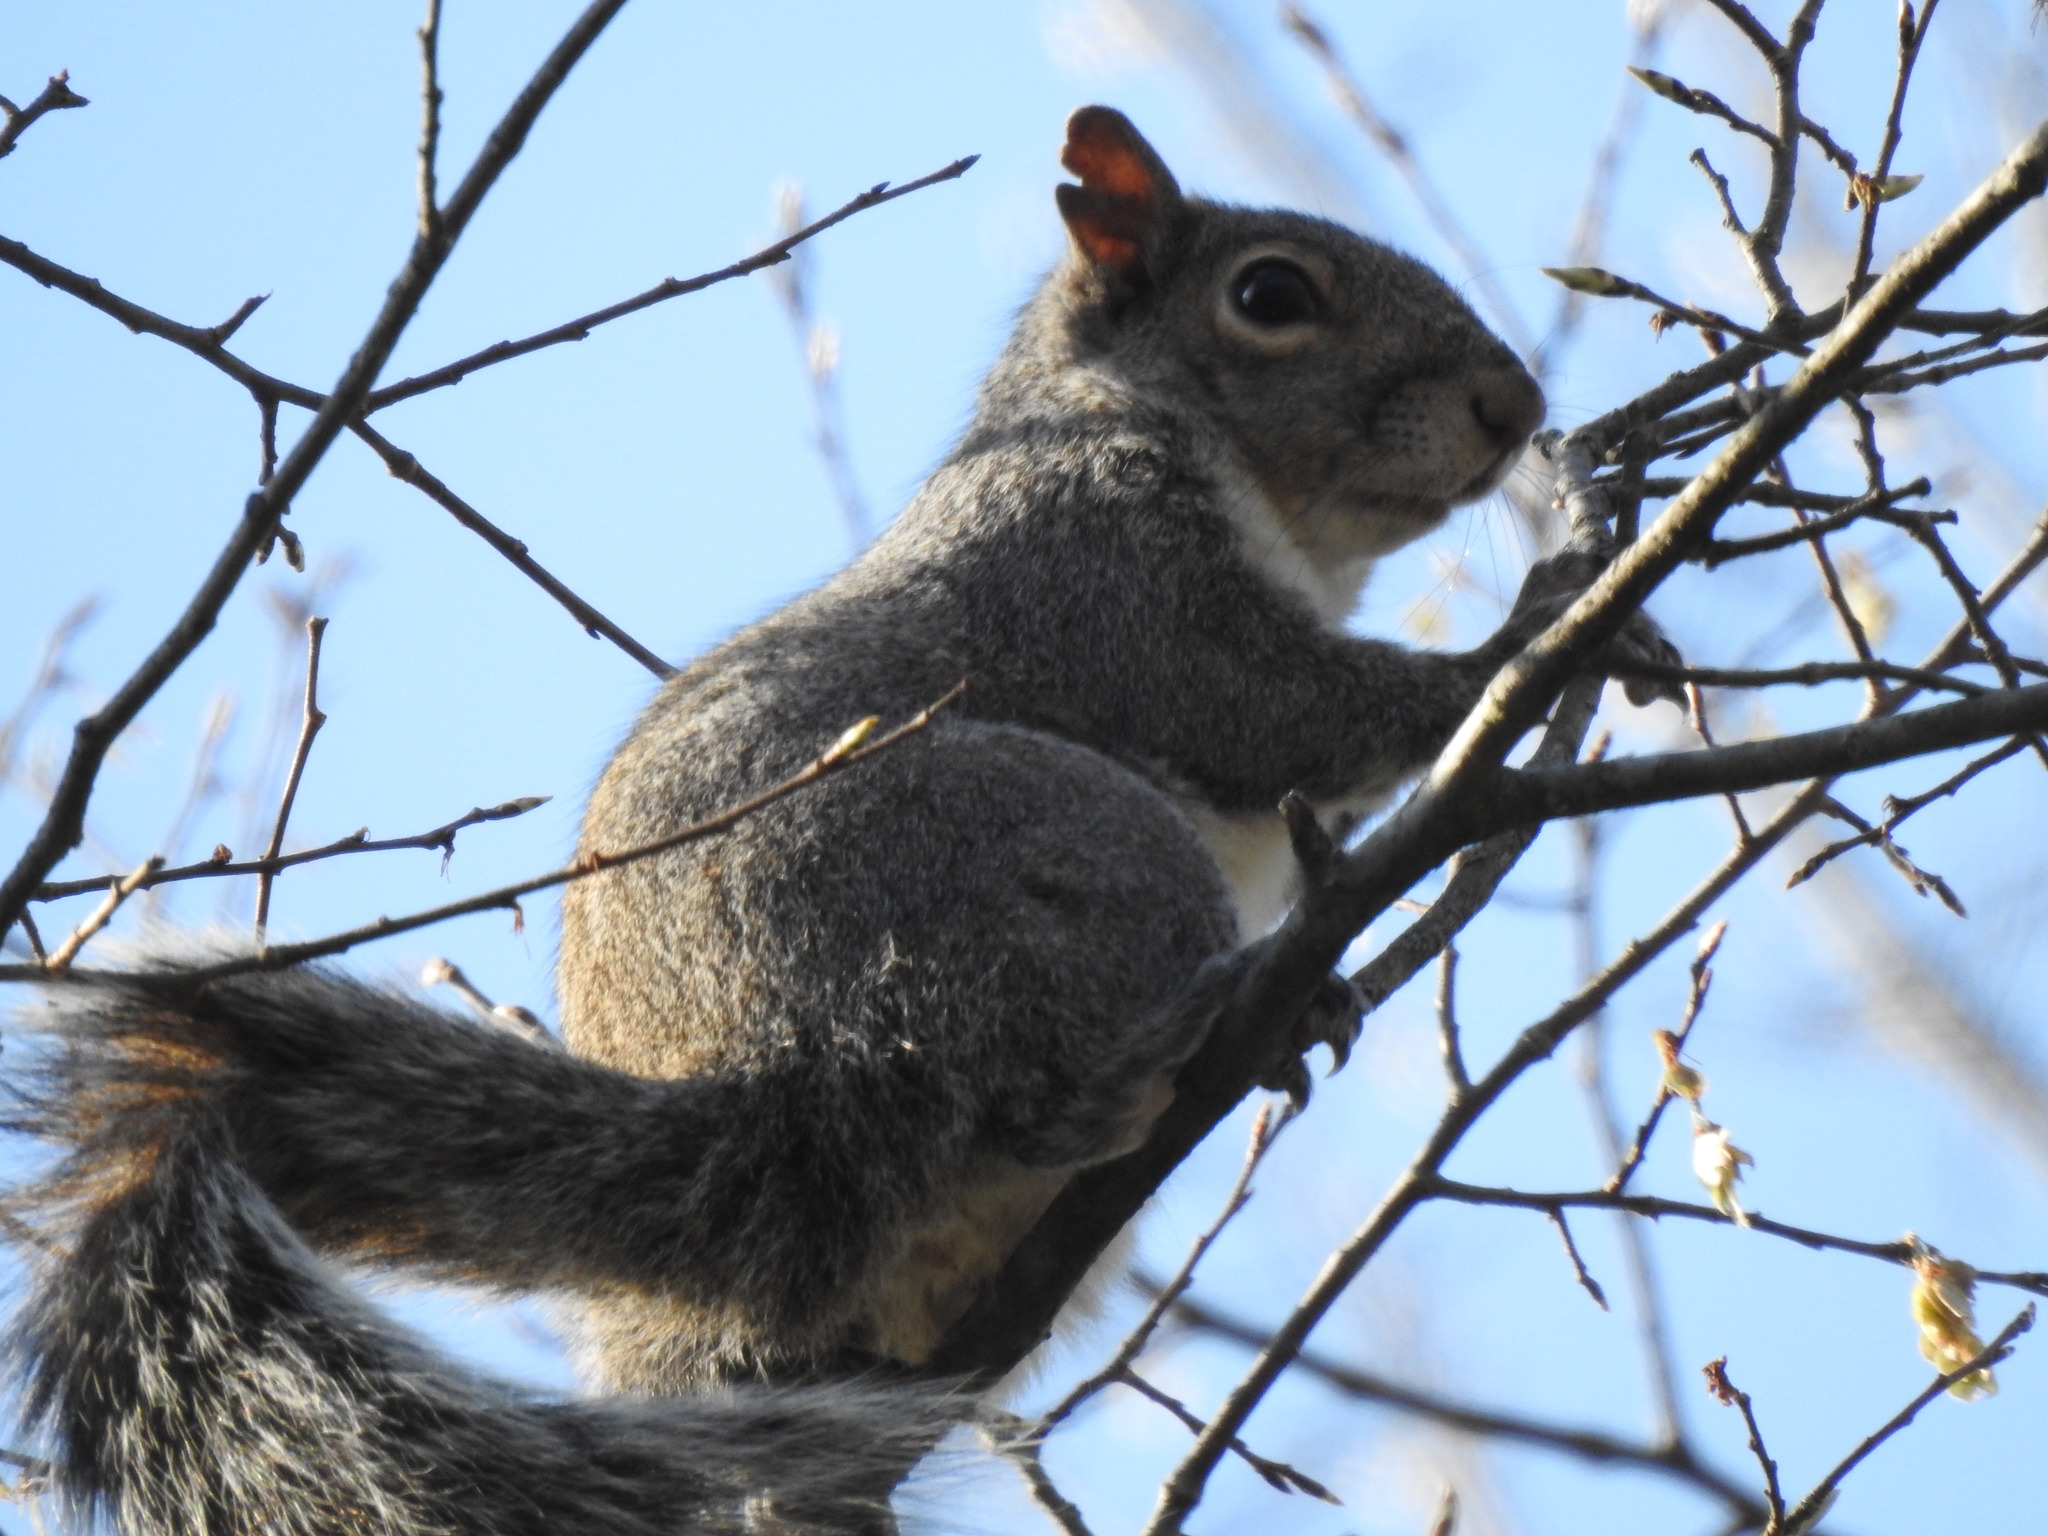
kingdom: Animalia
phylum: Chordata
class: Mammalia
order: Rodentia
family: Sciuridae
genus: Sciurus
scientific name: Sciurus carolinensis
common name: Eastern gray squirrel
